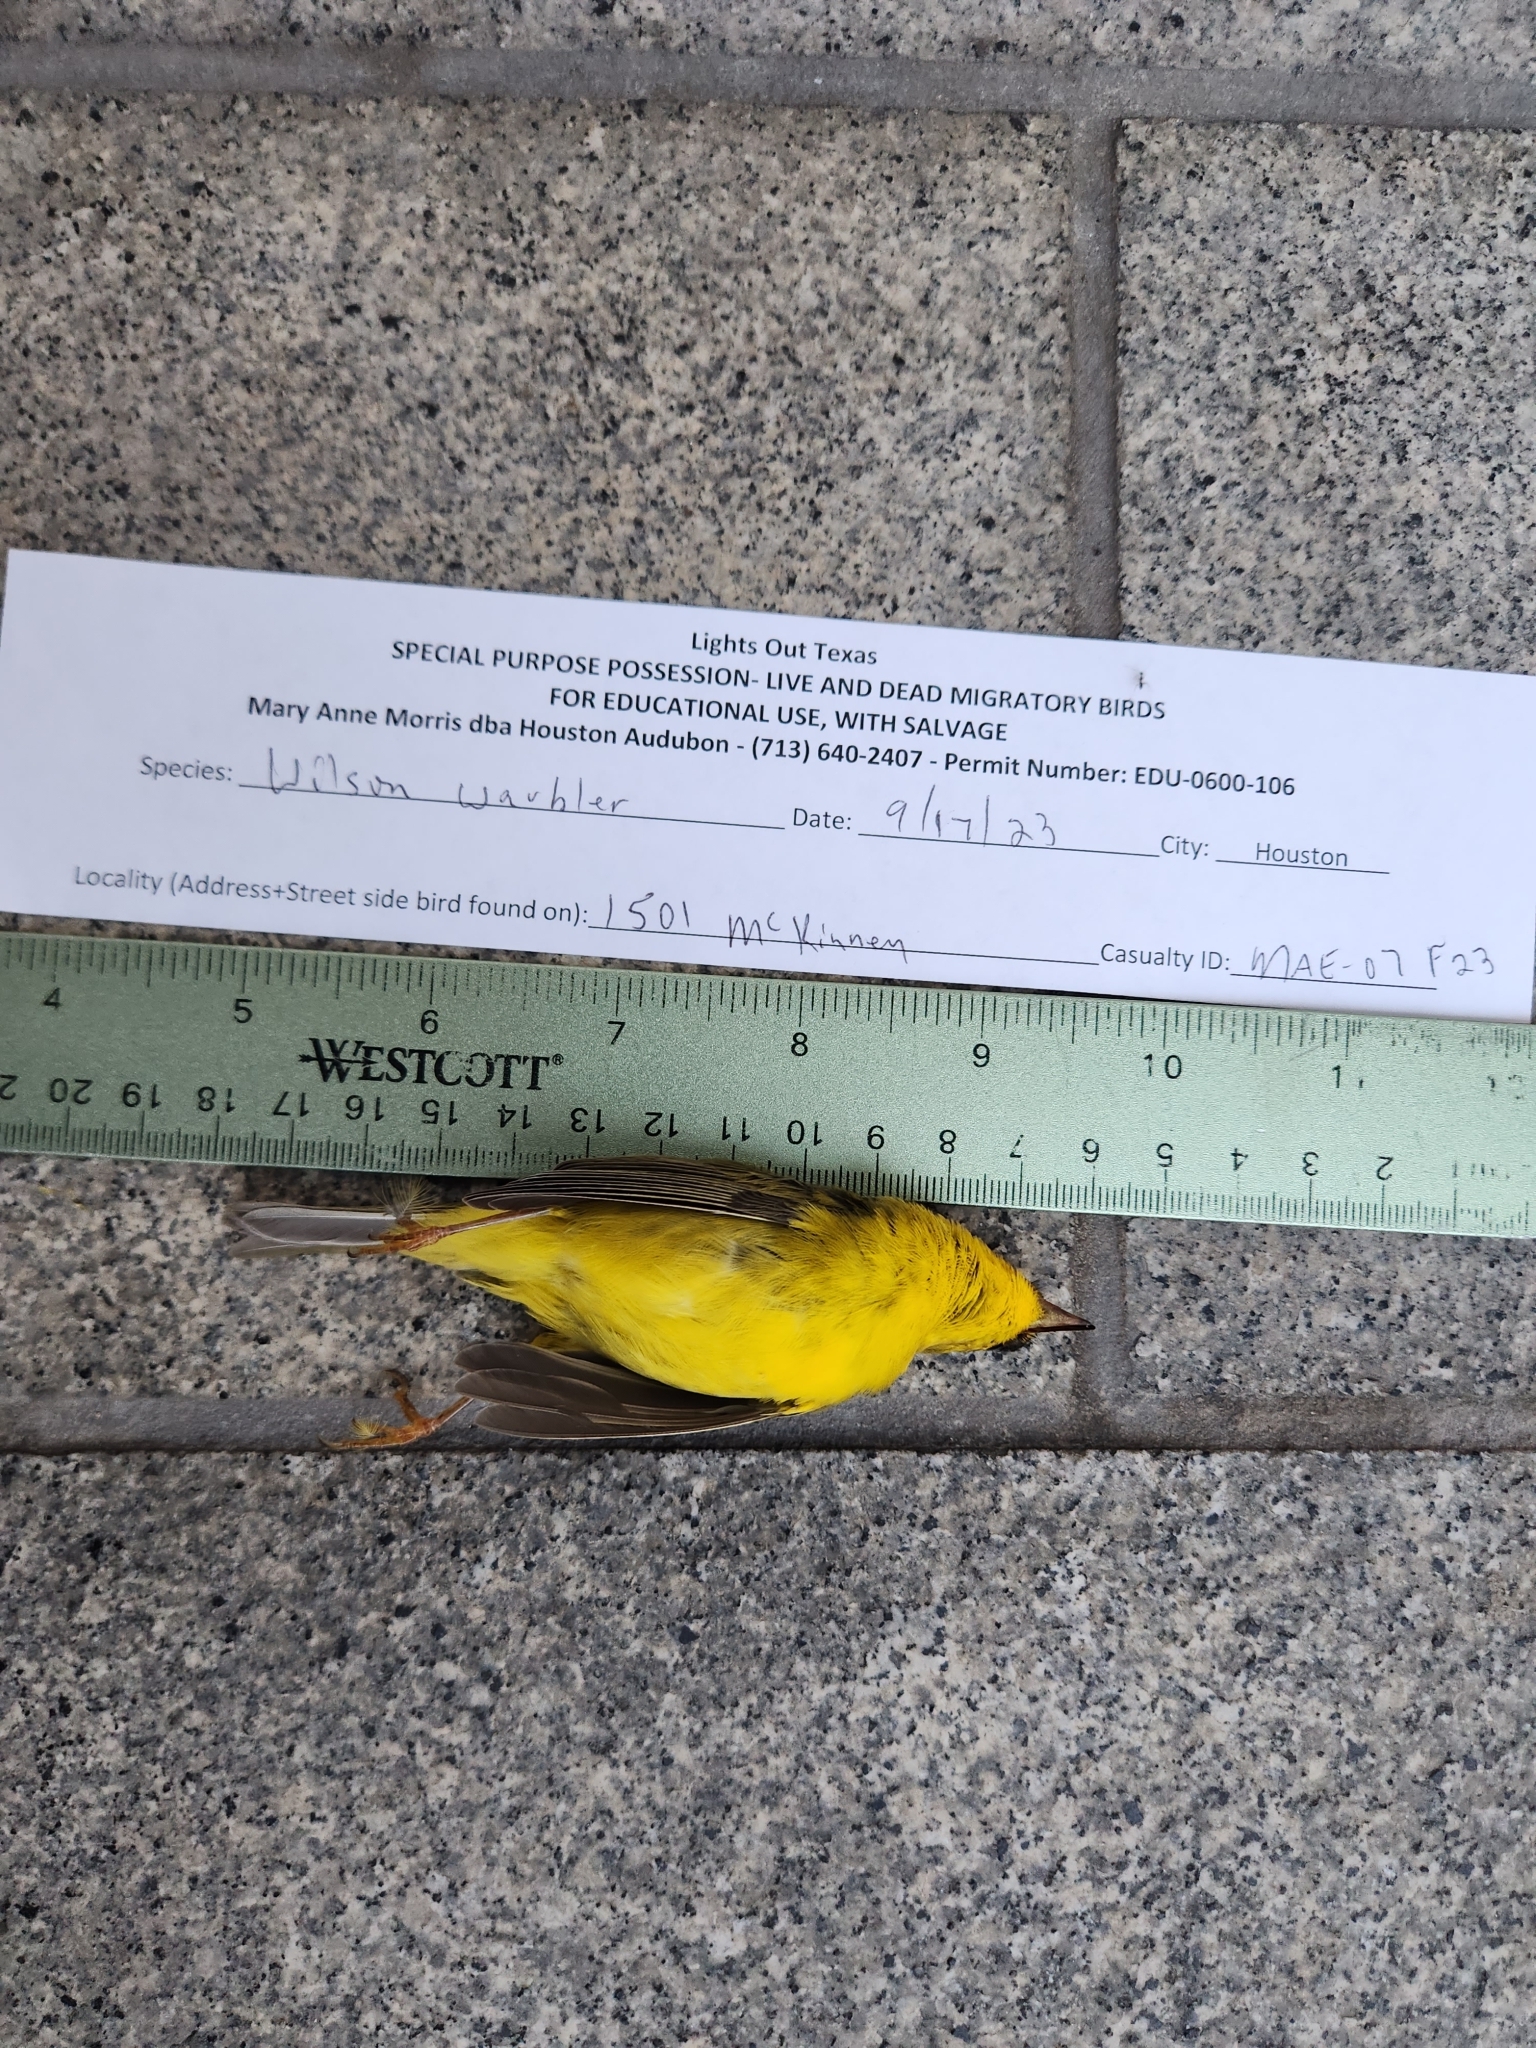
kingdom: Animalia
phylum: Chordata
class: Aves
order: Passeriformes
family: Parulidae
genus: Cardellina
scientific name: Cardellina pusilla
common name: Wilson's warbler
